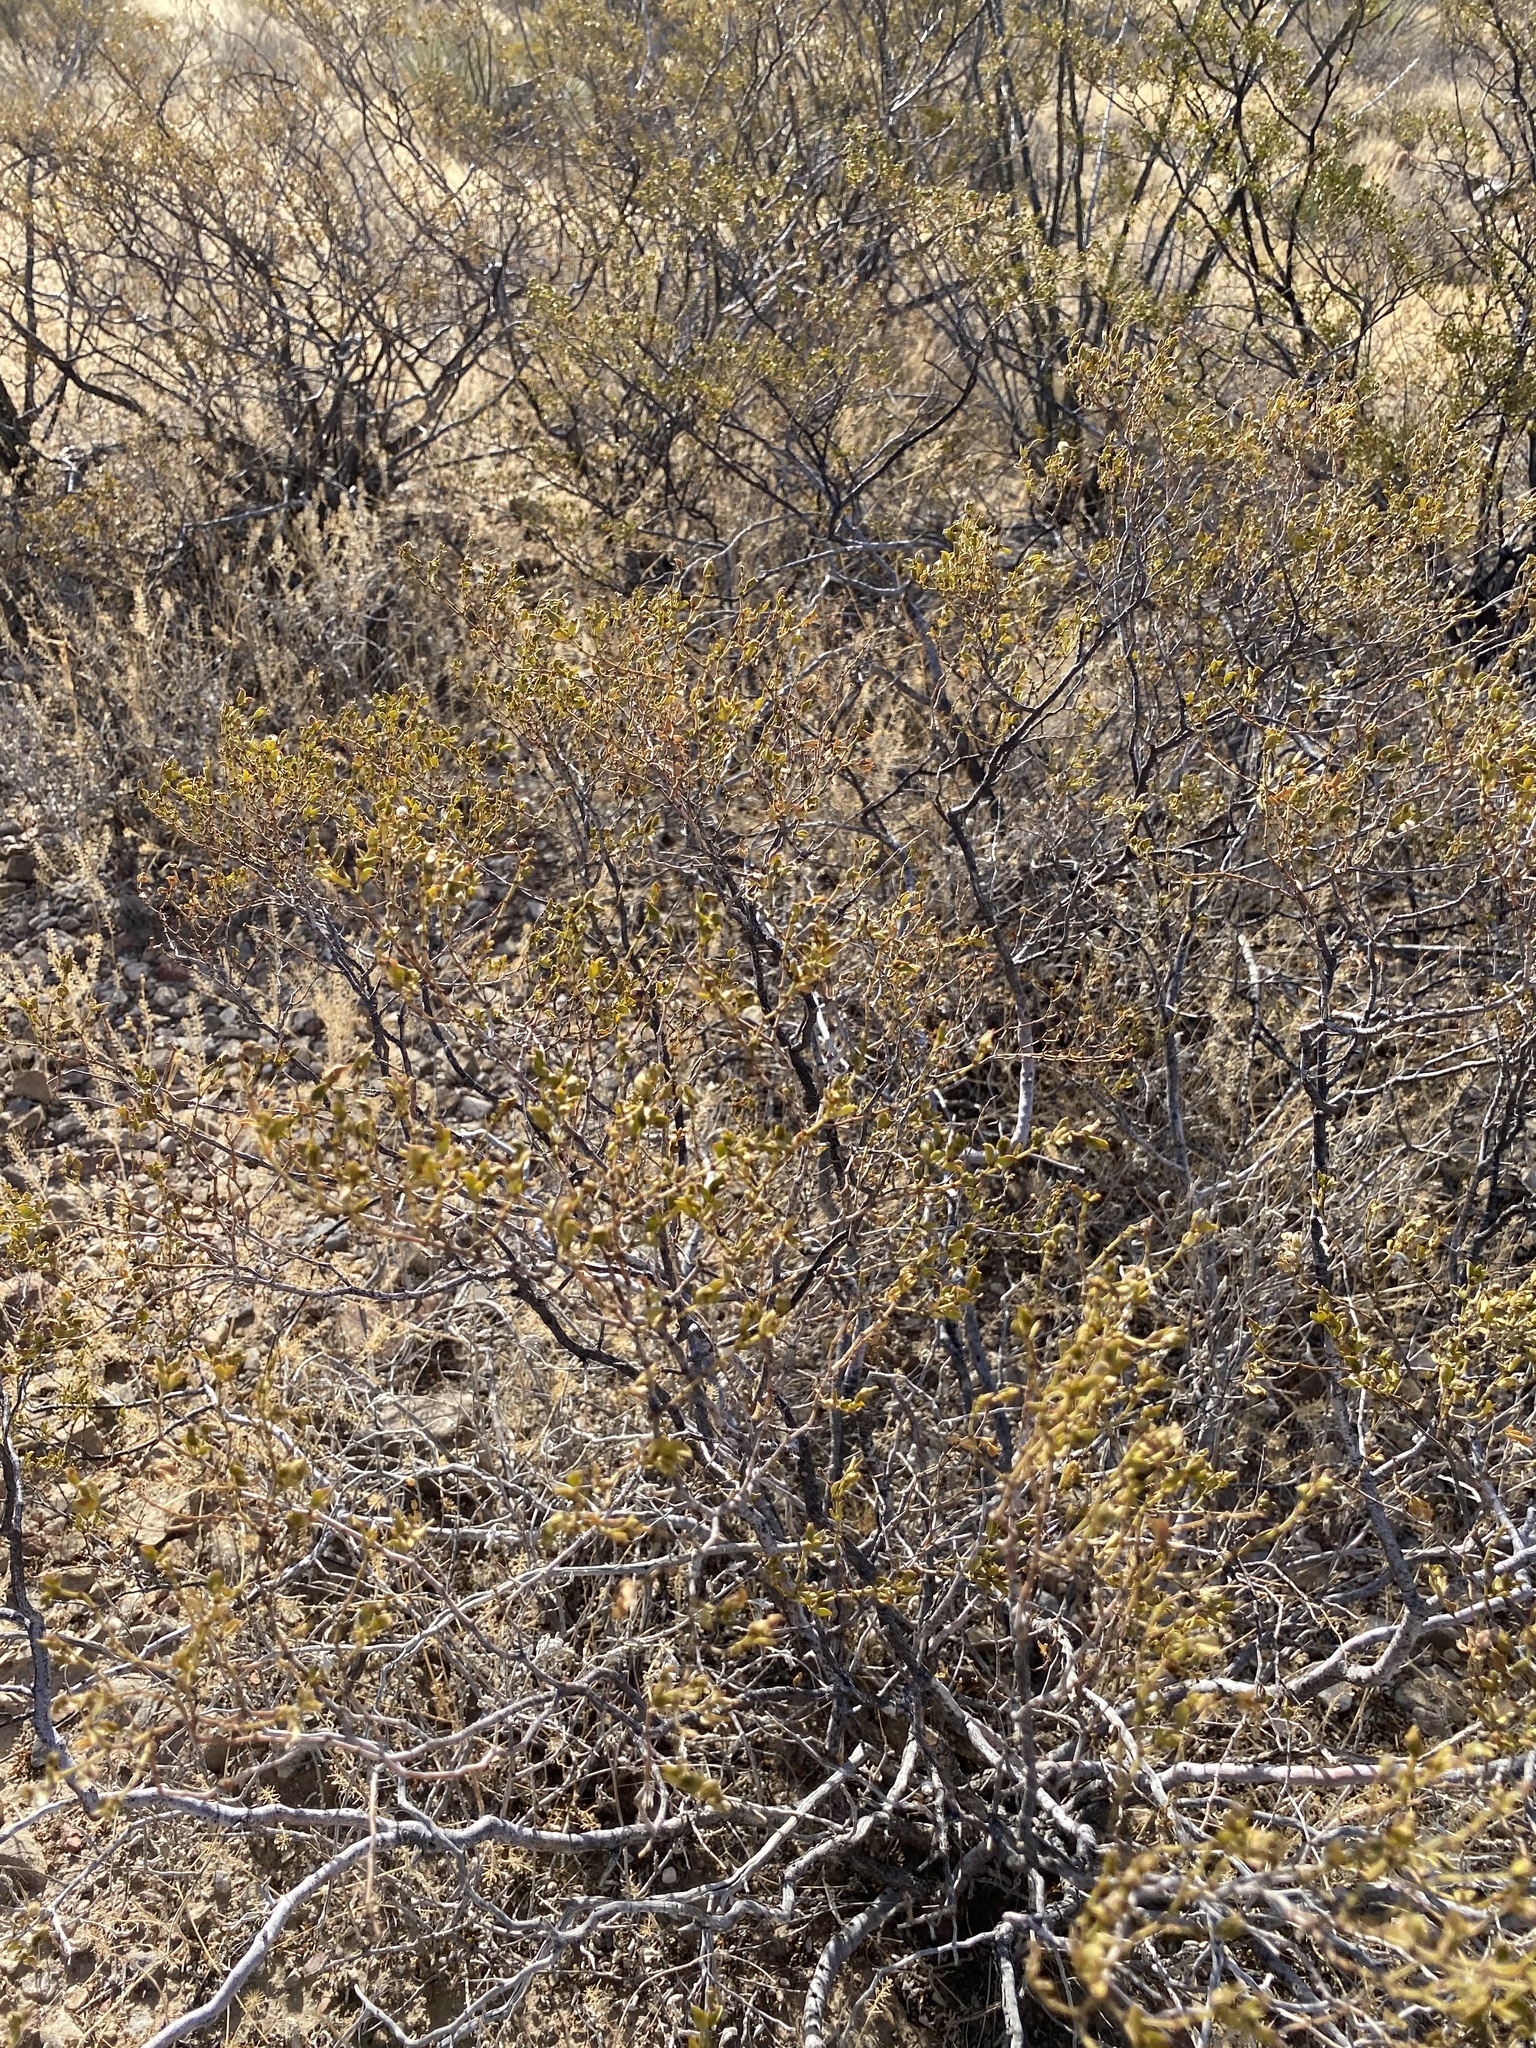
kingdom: Plantae
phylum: Tracheophyta
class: Magnoliopsida
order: Zygophyllales
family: Zygophyllaceae
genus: Larrea
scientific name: Larrea tridentata
